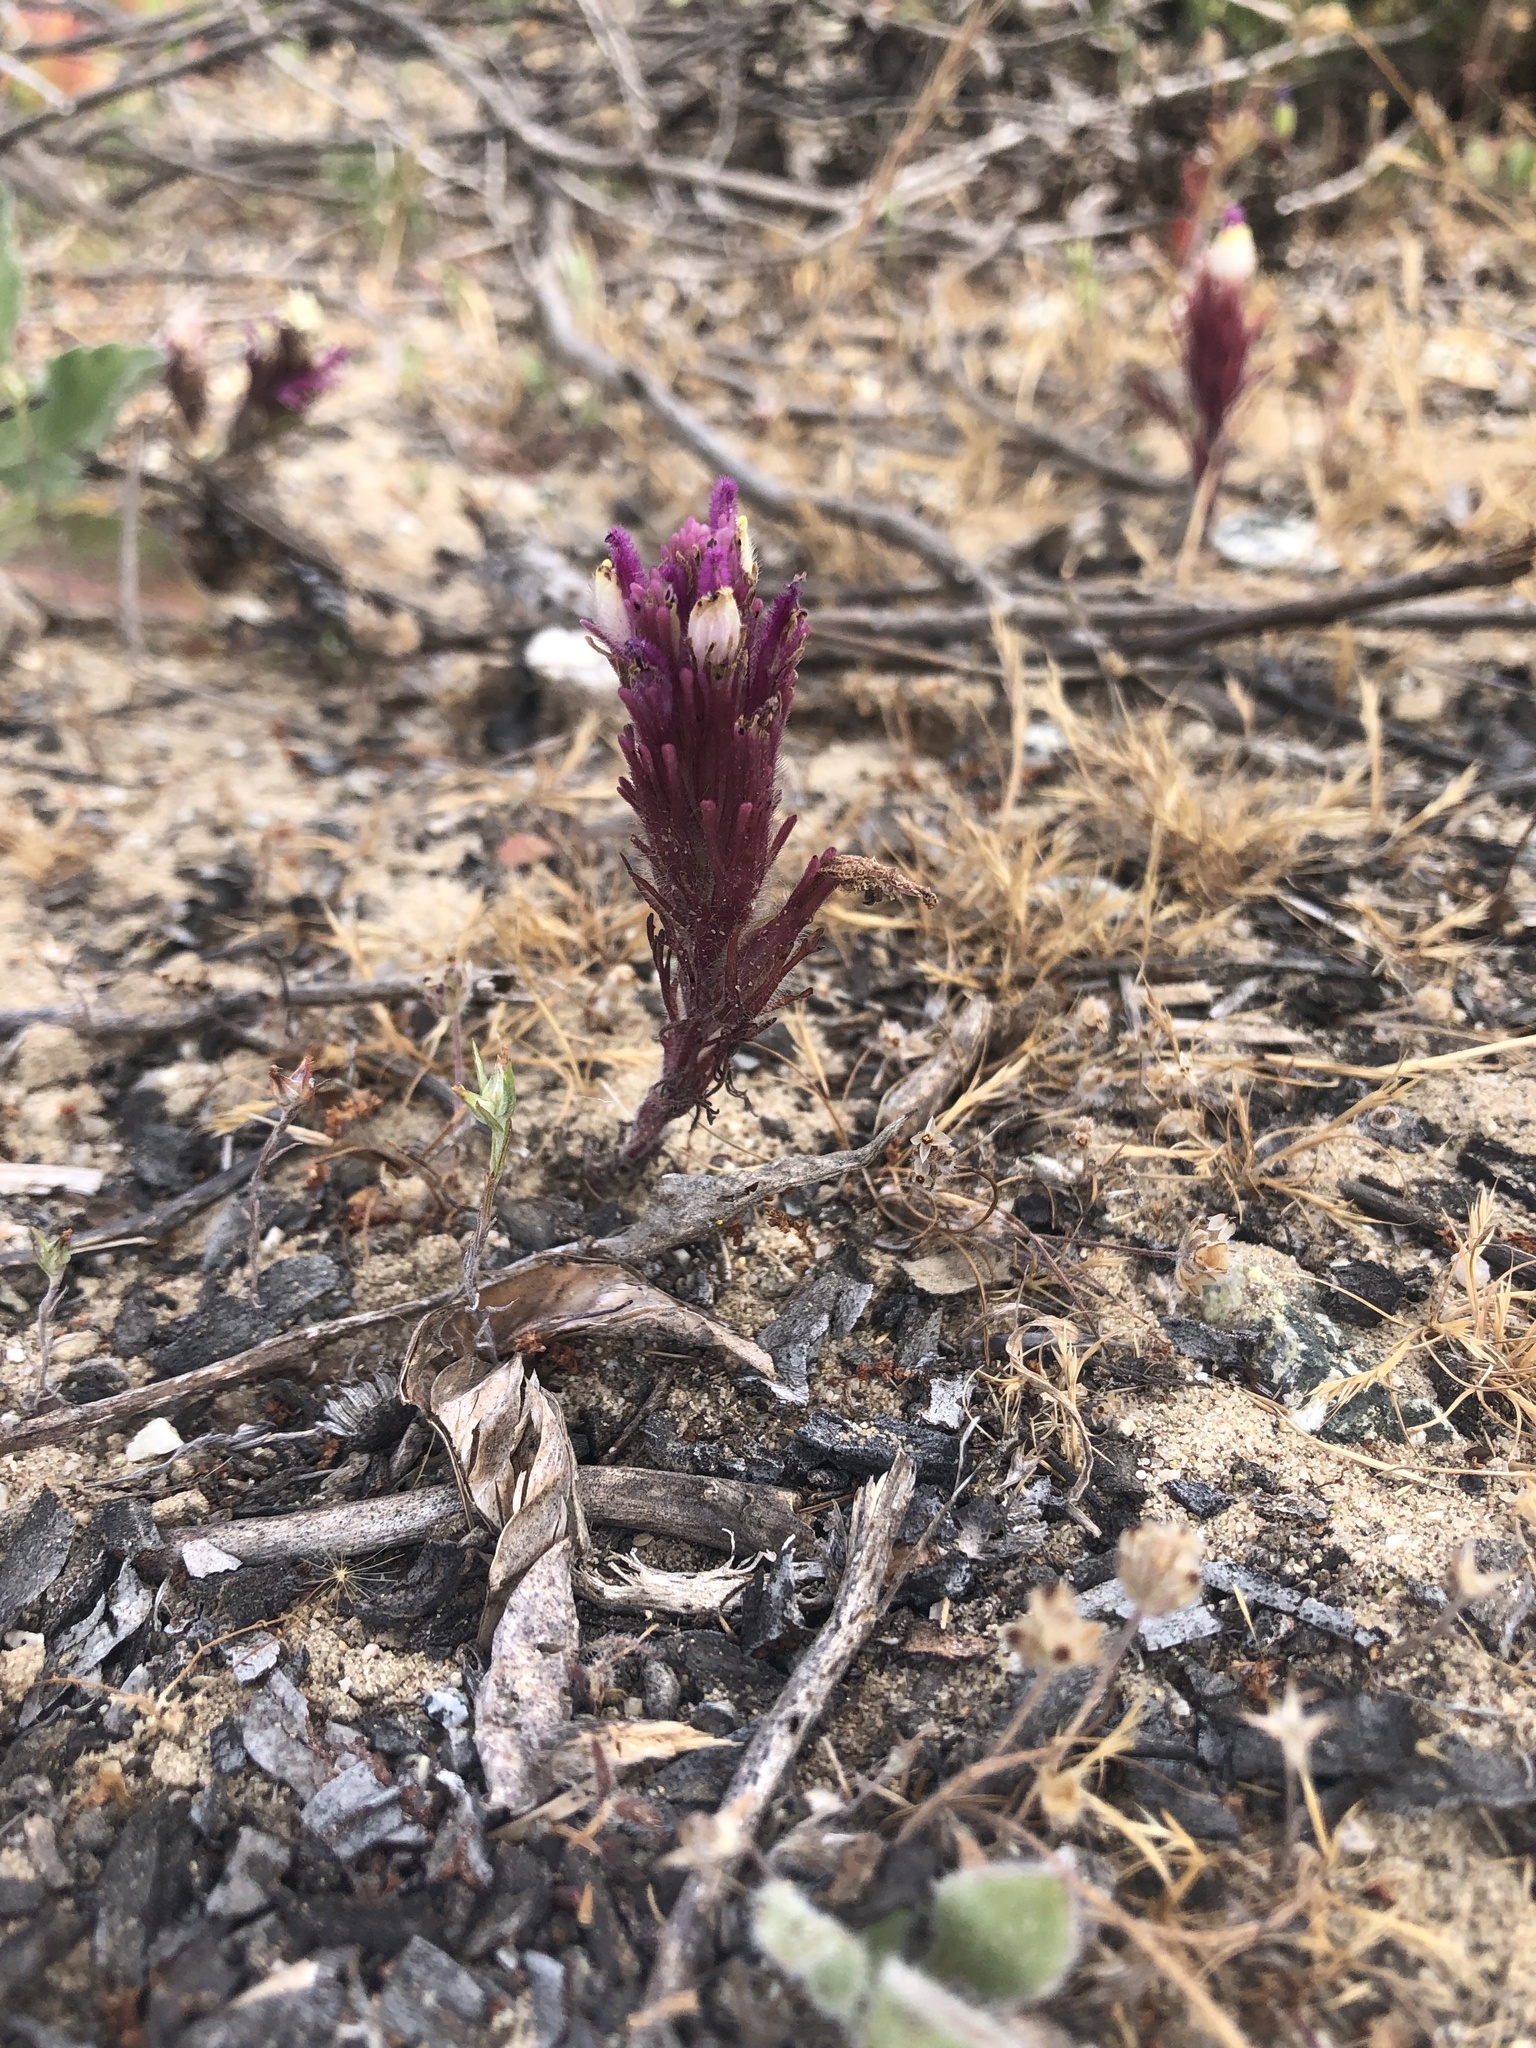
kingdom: Plantae
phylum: Tracheophyta
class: Magnoliopsida
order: Lamiales
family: Orobanchaceae
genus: Castilleja
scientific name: Castilleja exserta
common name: Purple owl-clover
